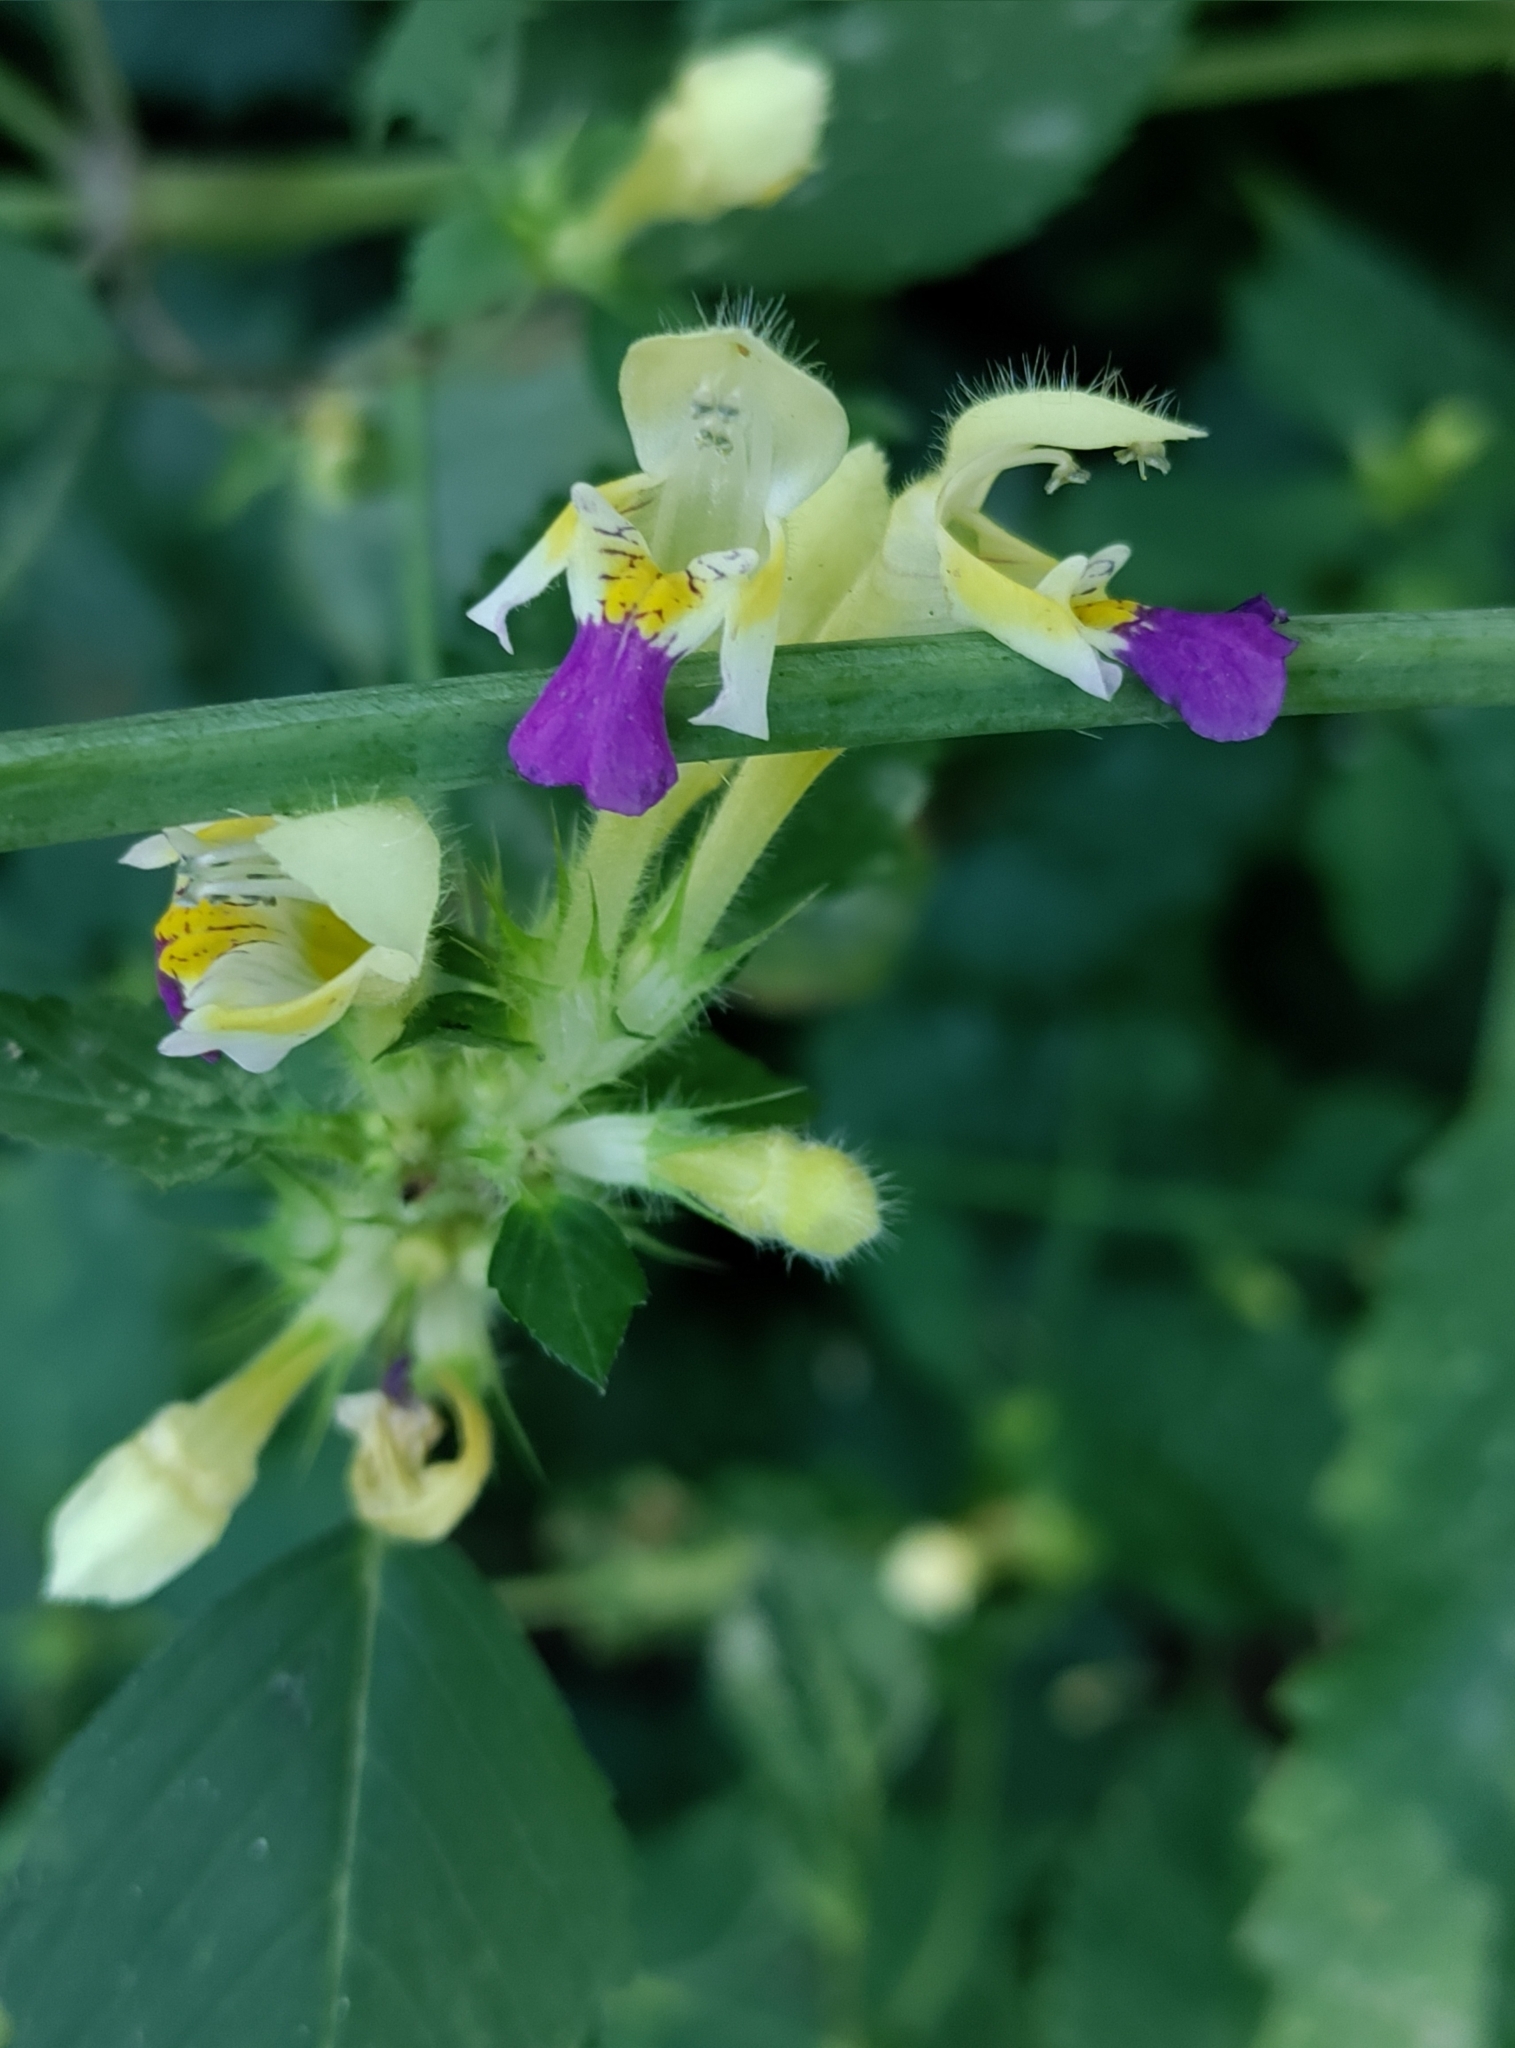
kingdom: Plantae
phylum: Tracheophyta
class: Magnoliopsida
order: Lamiales
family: Lamiaceae
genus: Galeopsis
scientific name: Galeopsis speciosa
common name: Large-flowered hemp-nettle
